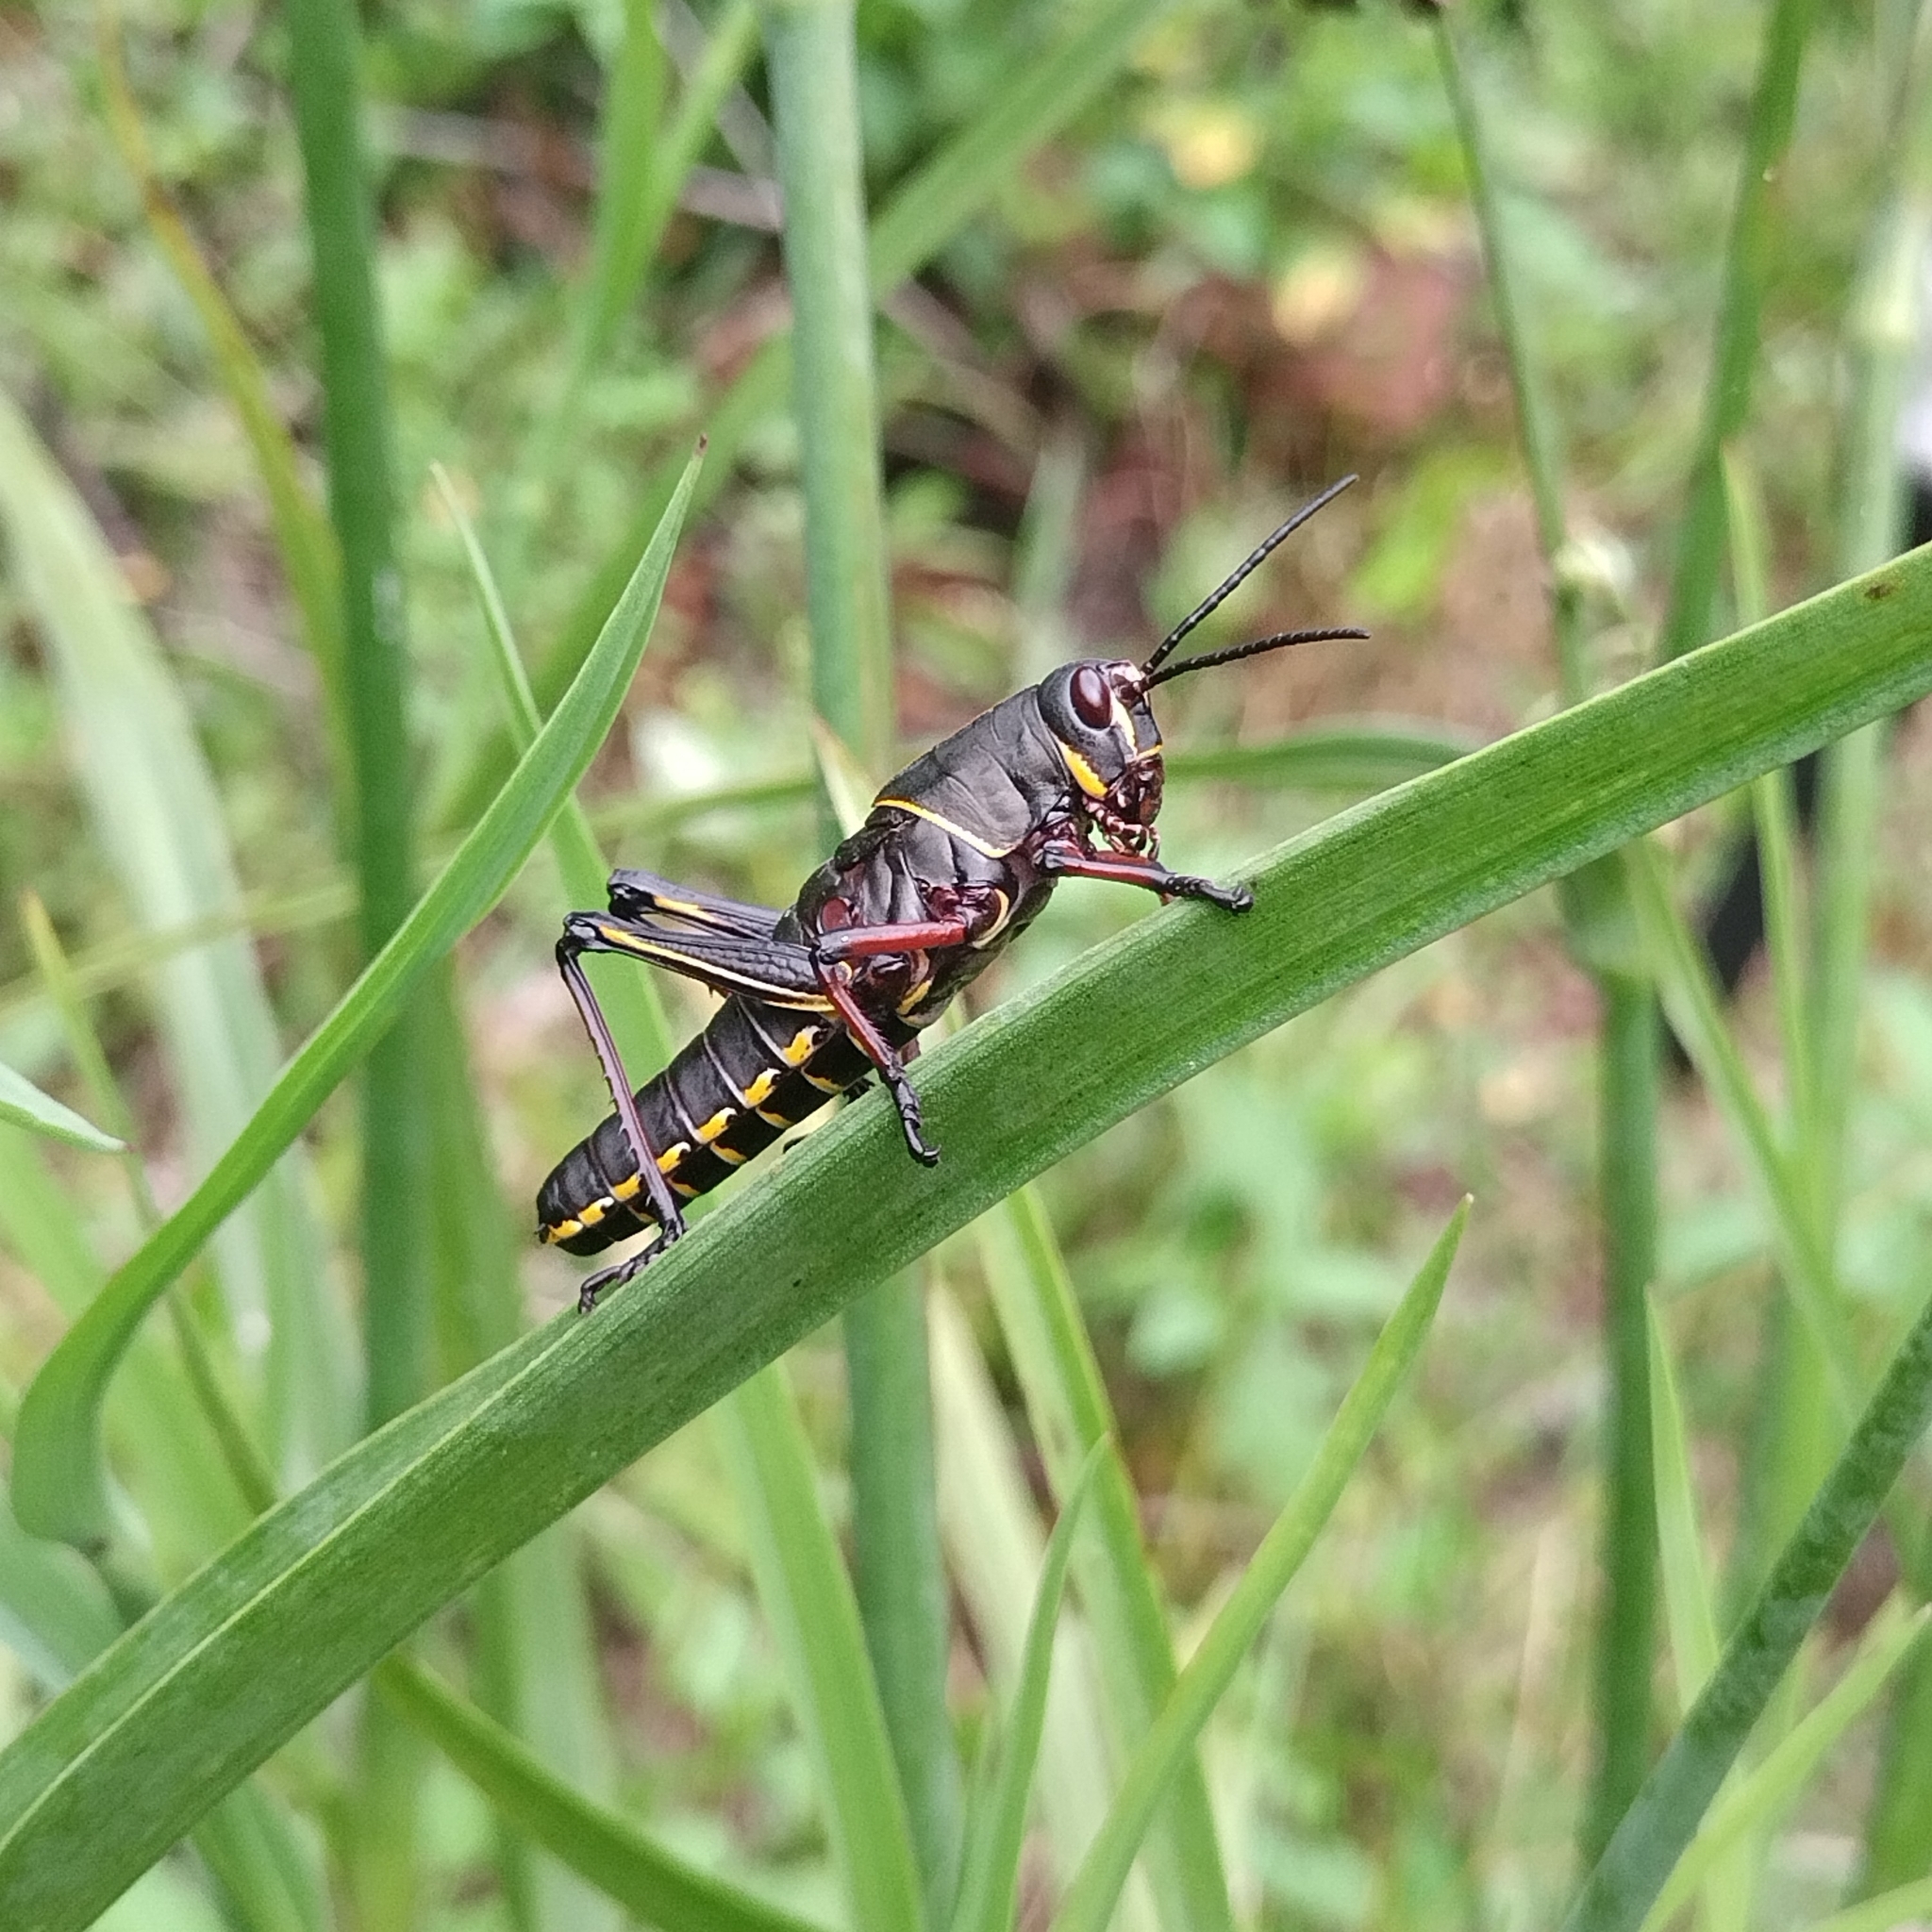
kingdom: Animalia
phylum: Arthropoda
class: Insecta
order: Orthoptera
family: Romaleidae
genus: Romalea
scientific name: Romalea microptera
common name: Eastern lubber grasshopper
